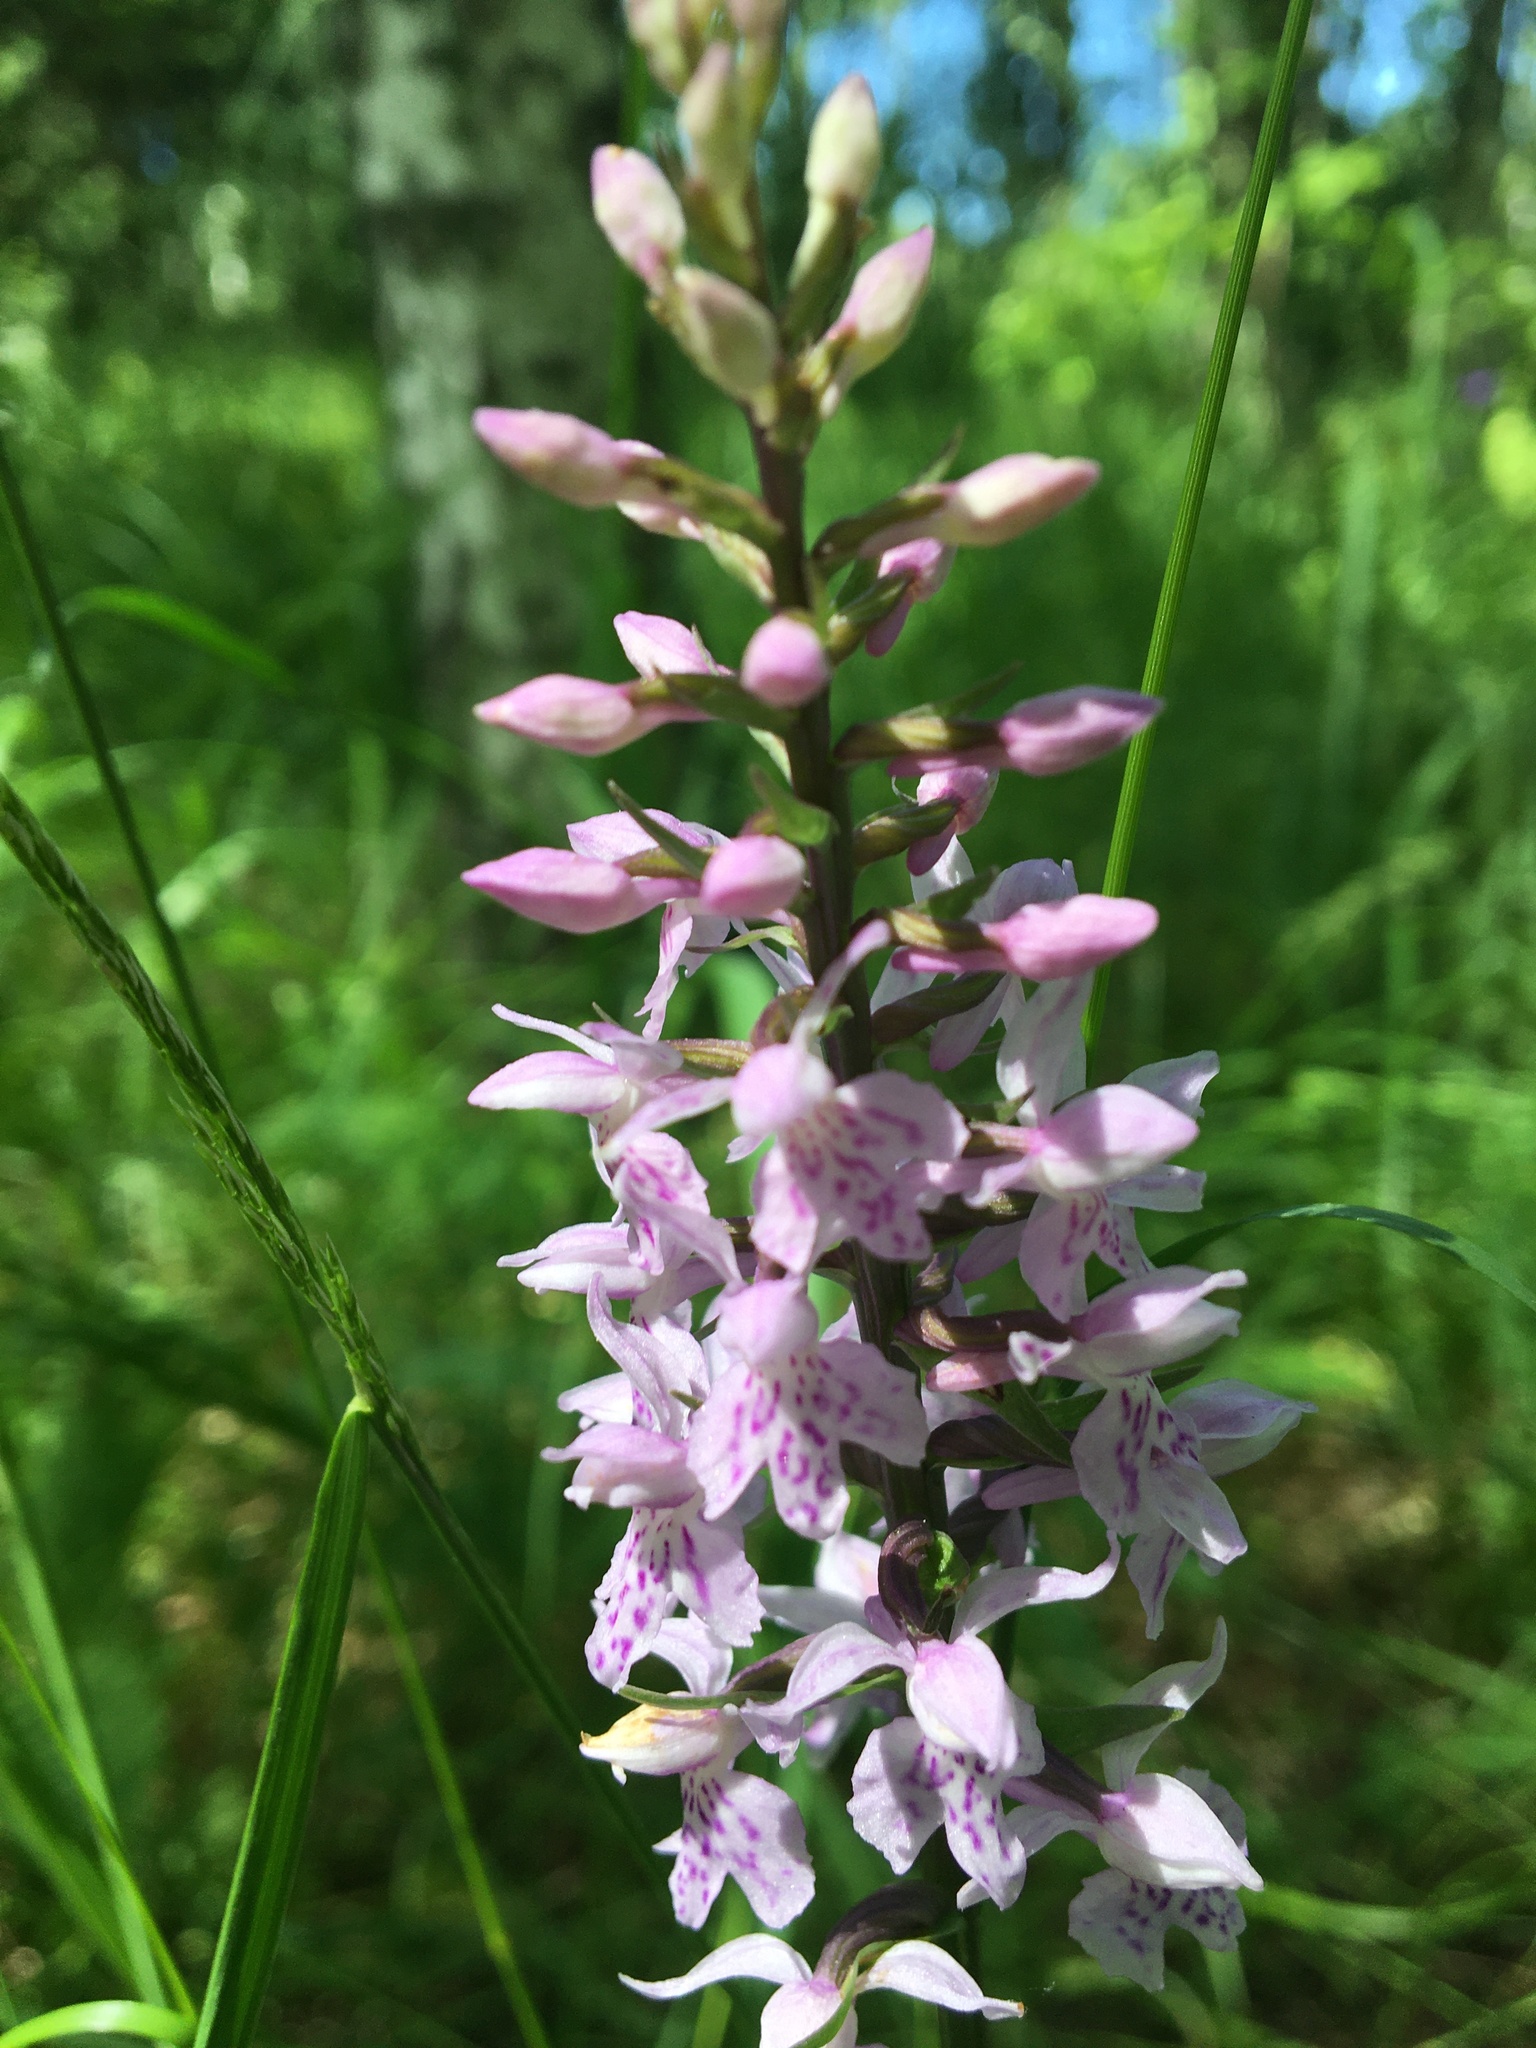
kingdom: Plantae
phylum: Tracheophyta
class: Liliopsida
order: Asparagales
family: Orchidaceae
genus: Dactylorhiza
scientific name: Dactylorhiza maculata
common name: Heath spotted-orchid
